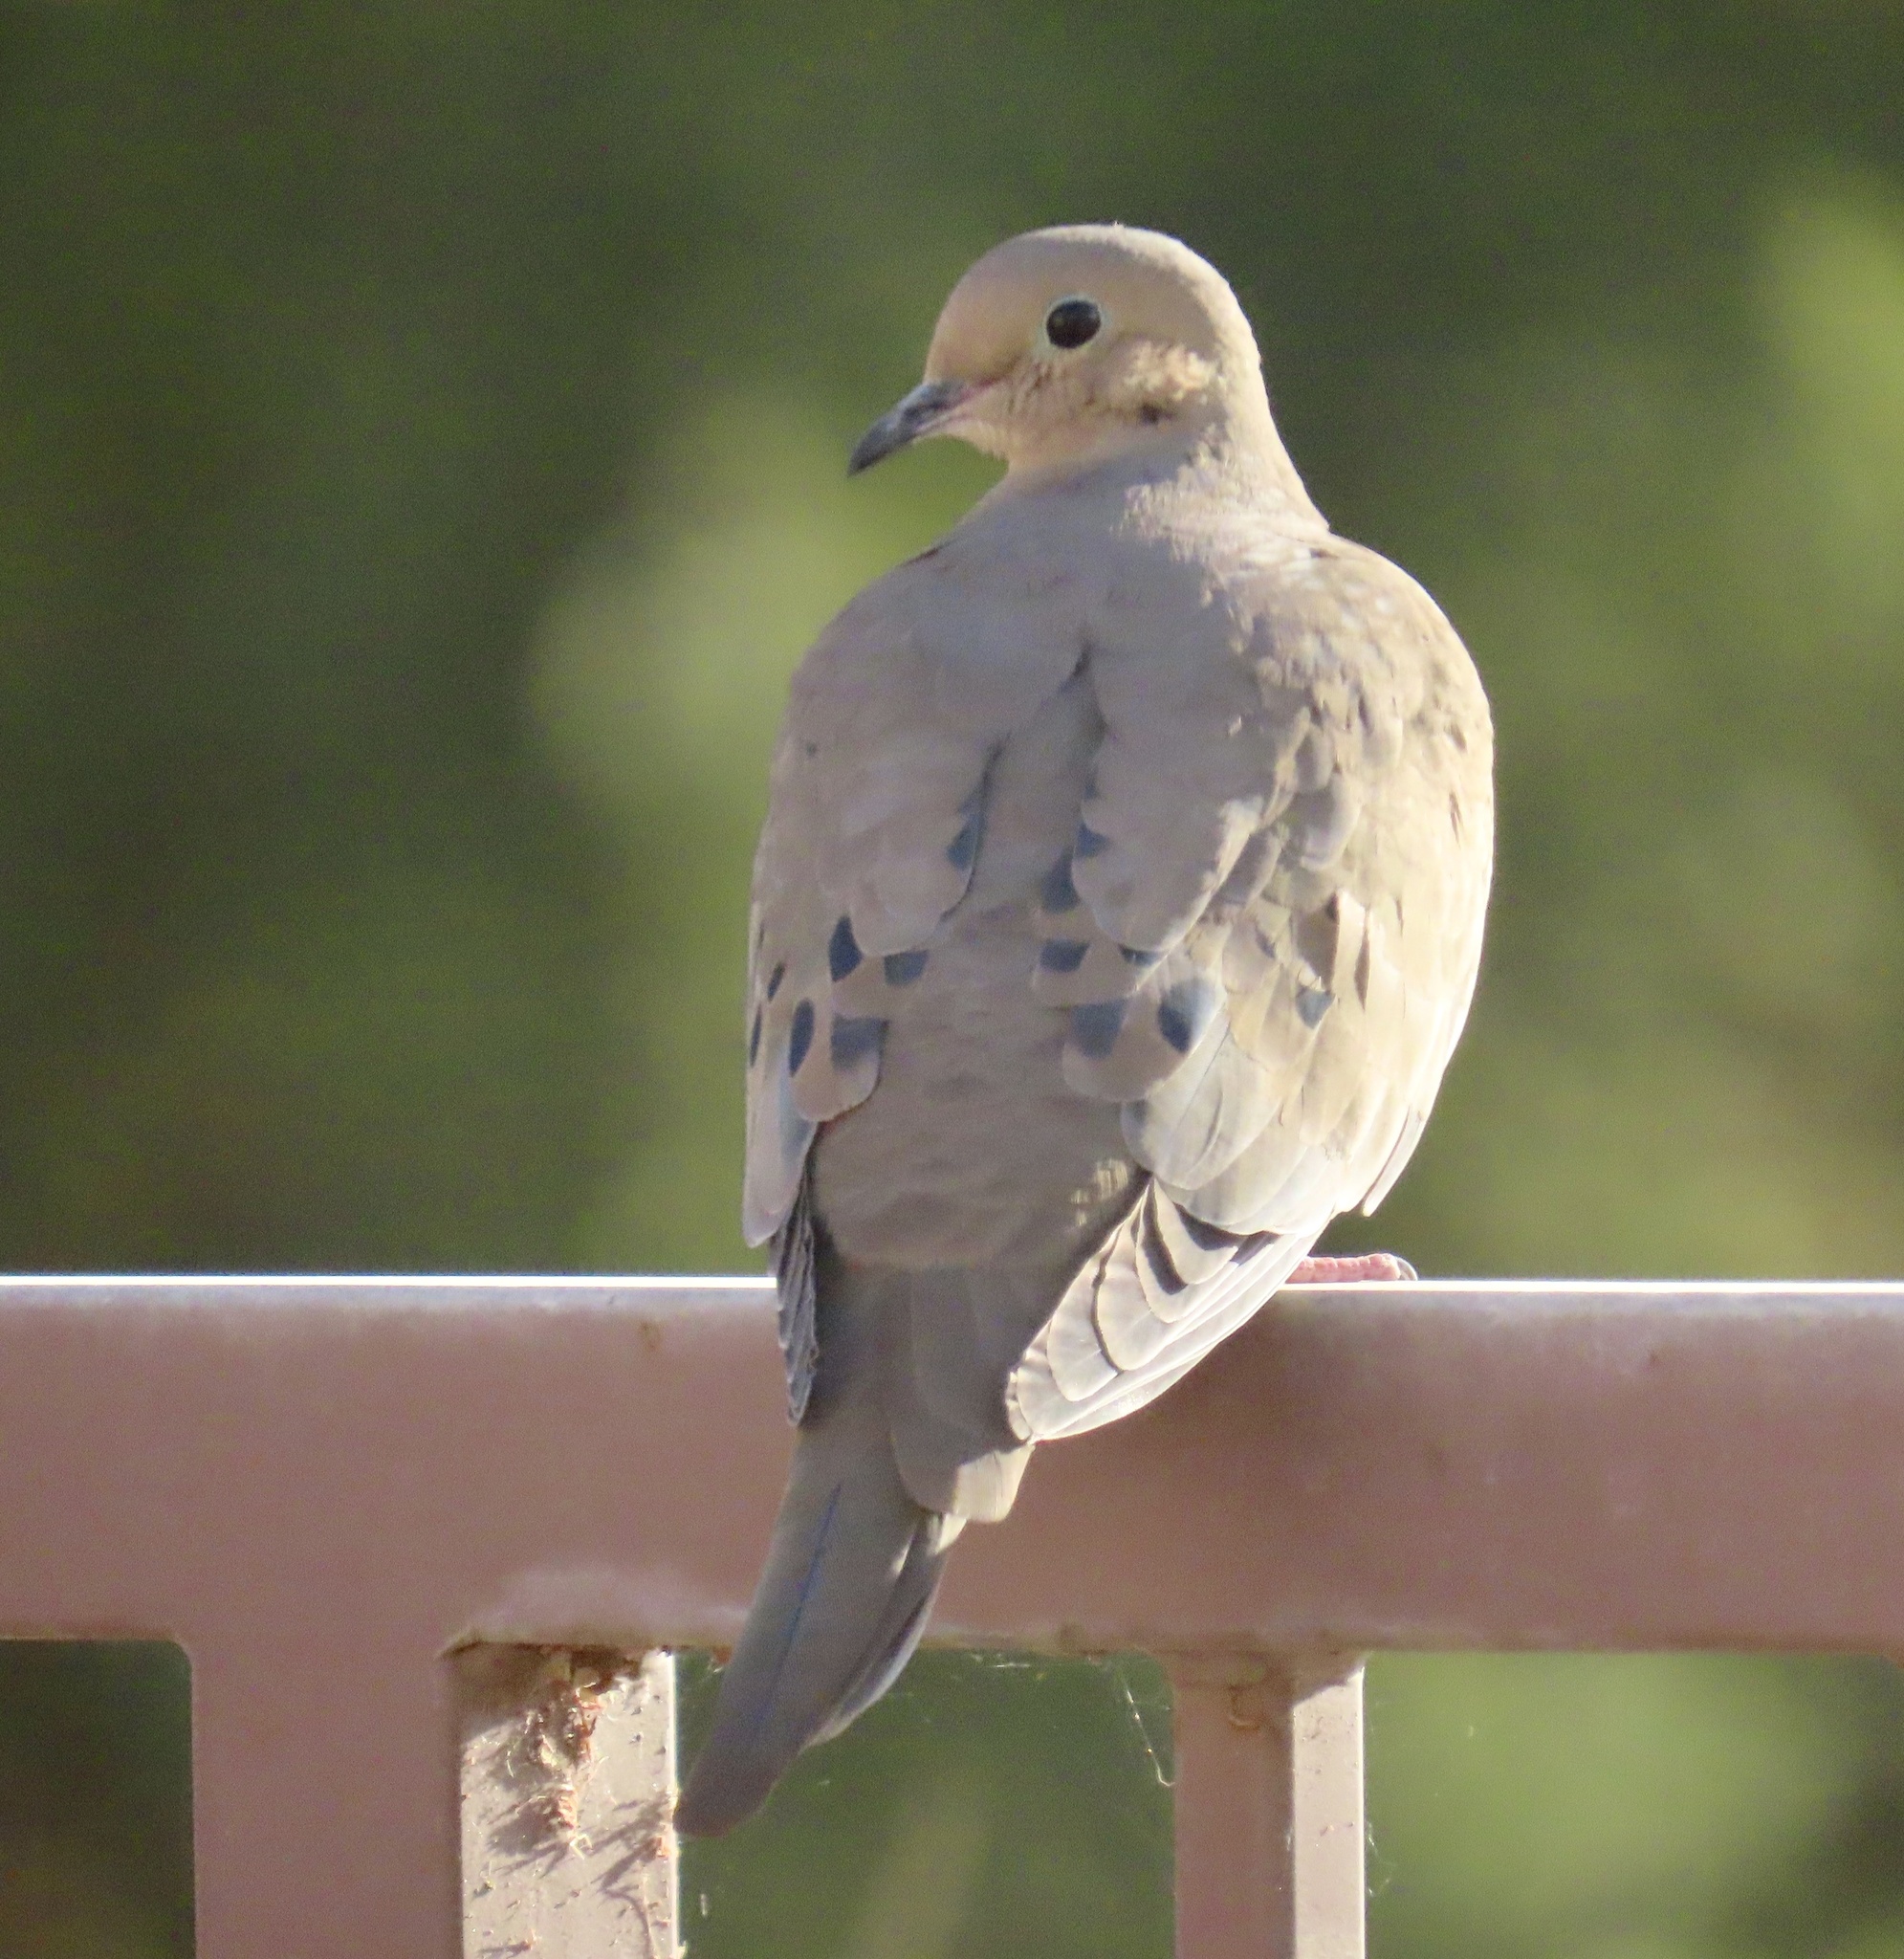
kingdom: Animalia
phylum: Chordata
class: Aves
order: Columbiformes
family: Columbidae
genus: Zenaida
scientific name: Zenaida macroura
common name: Mourning dove
